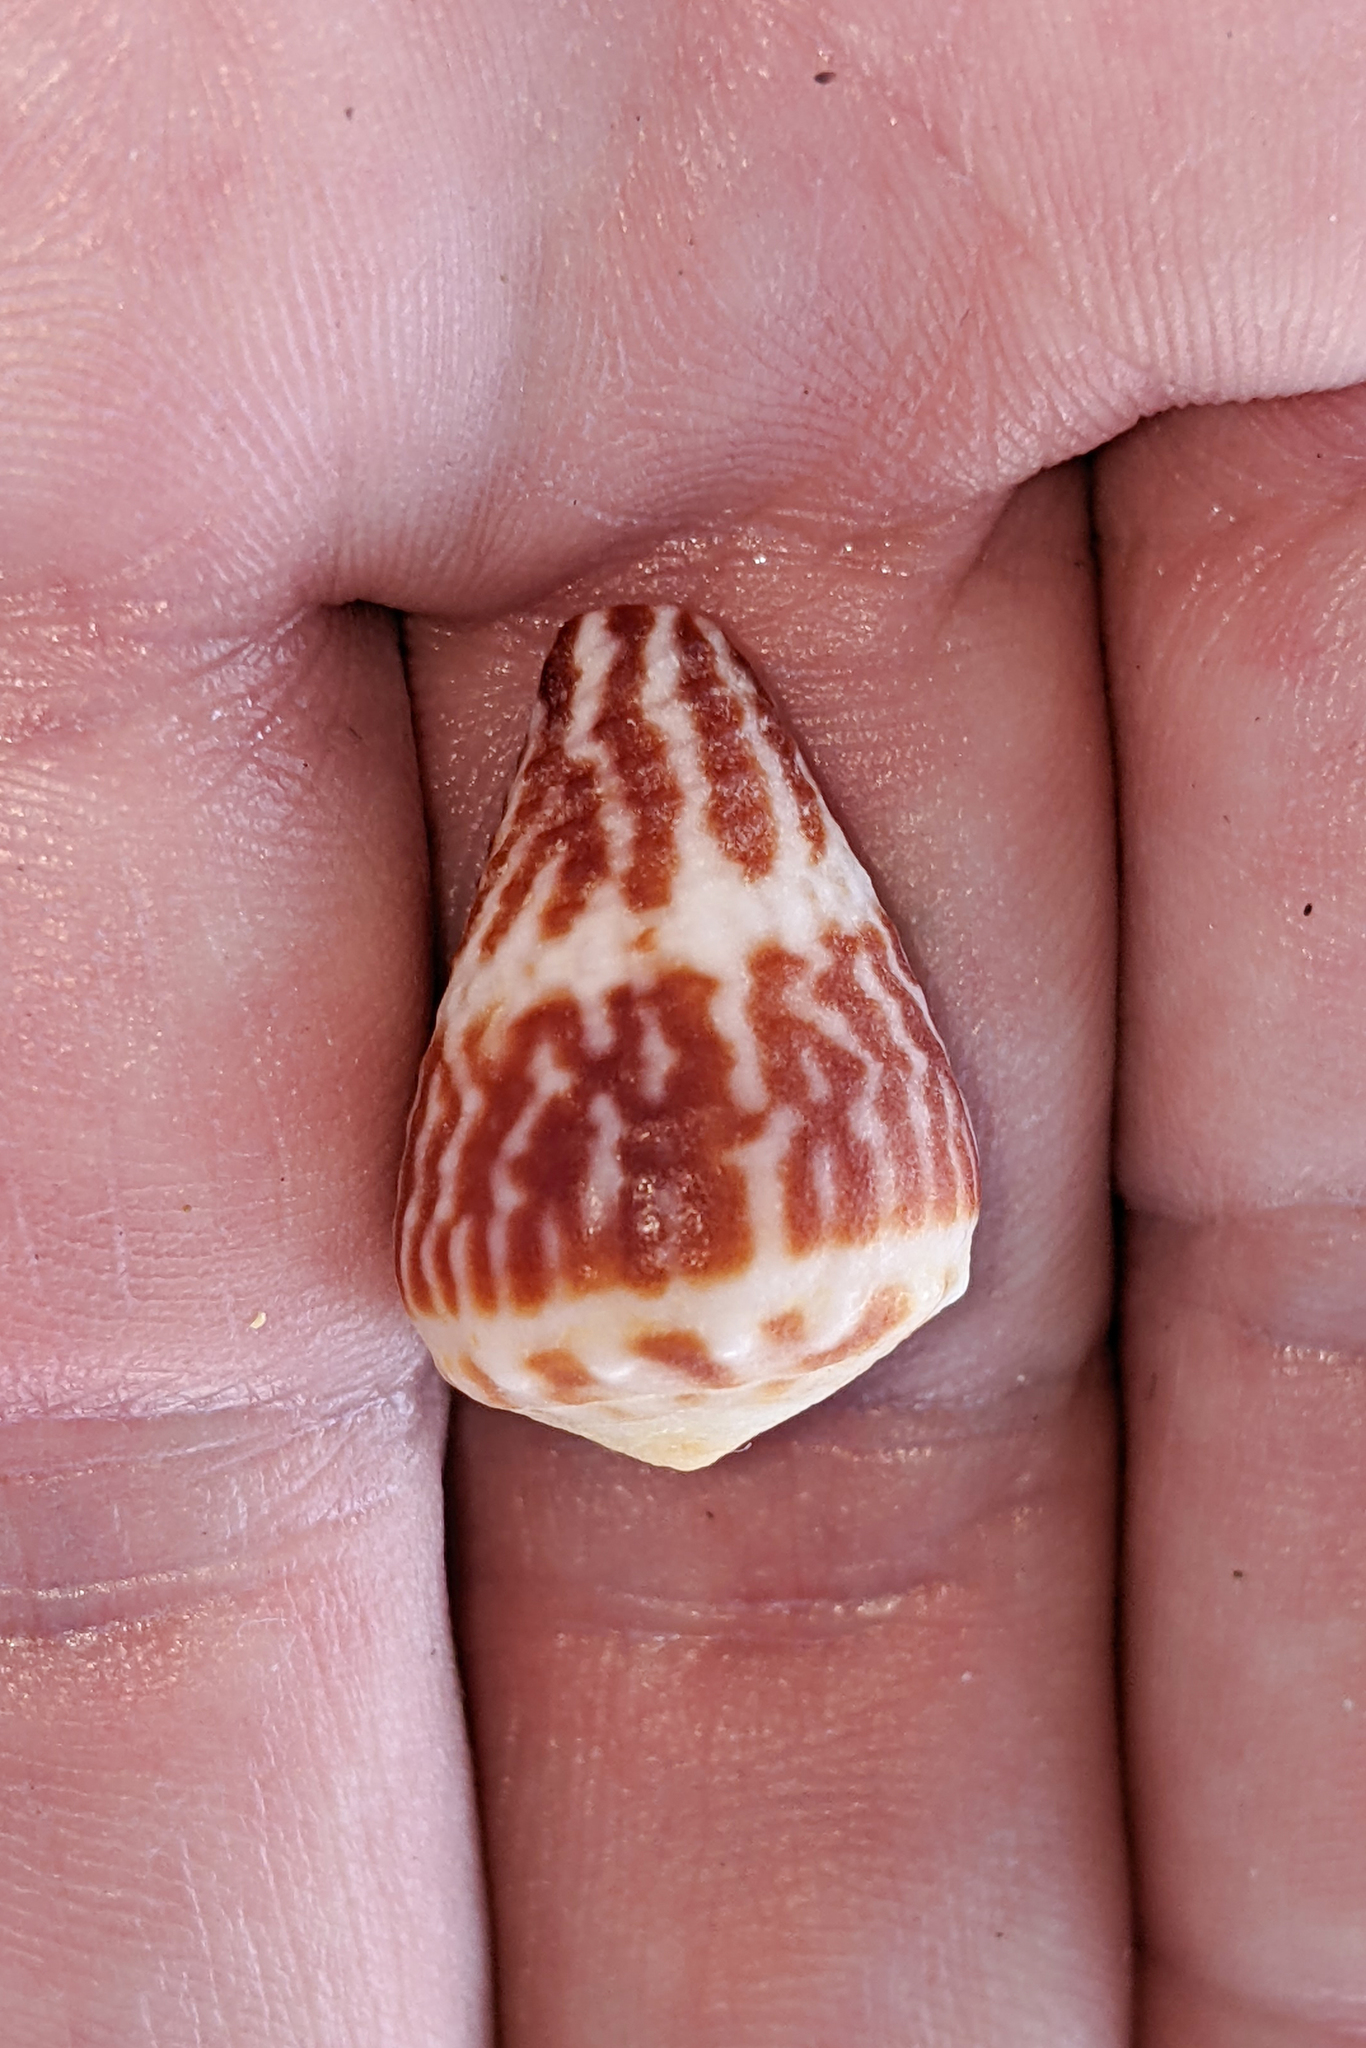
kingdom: Animalia
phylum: Mollusca
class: Gastropoda
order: Neogastropoda
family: Conidae
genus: Conus
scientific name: Conus chaldaeus
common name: Astrologer's cone
